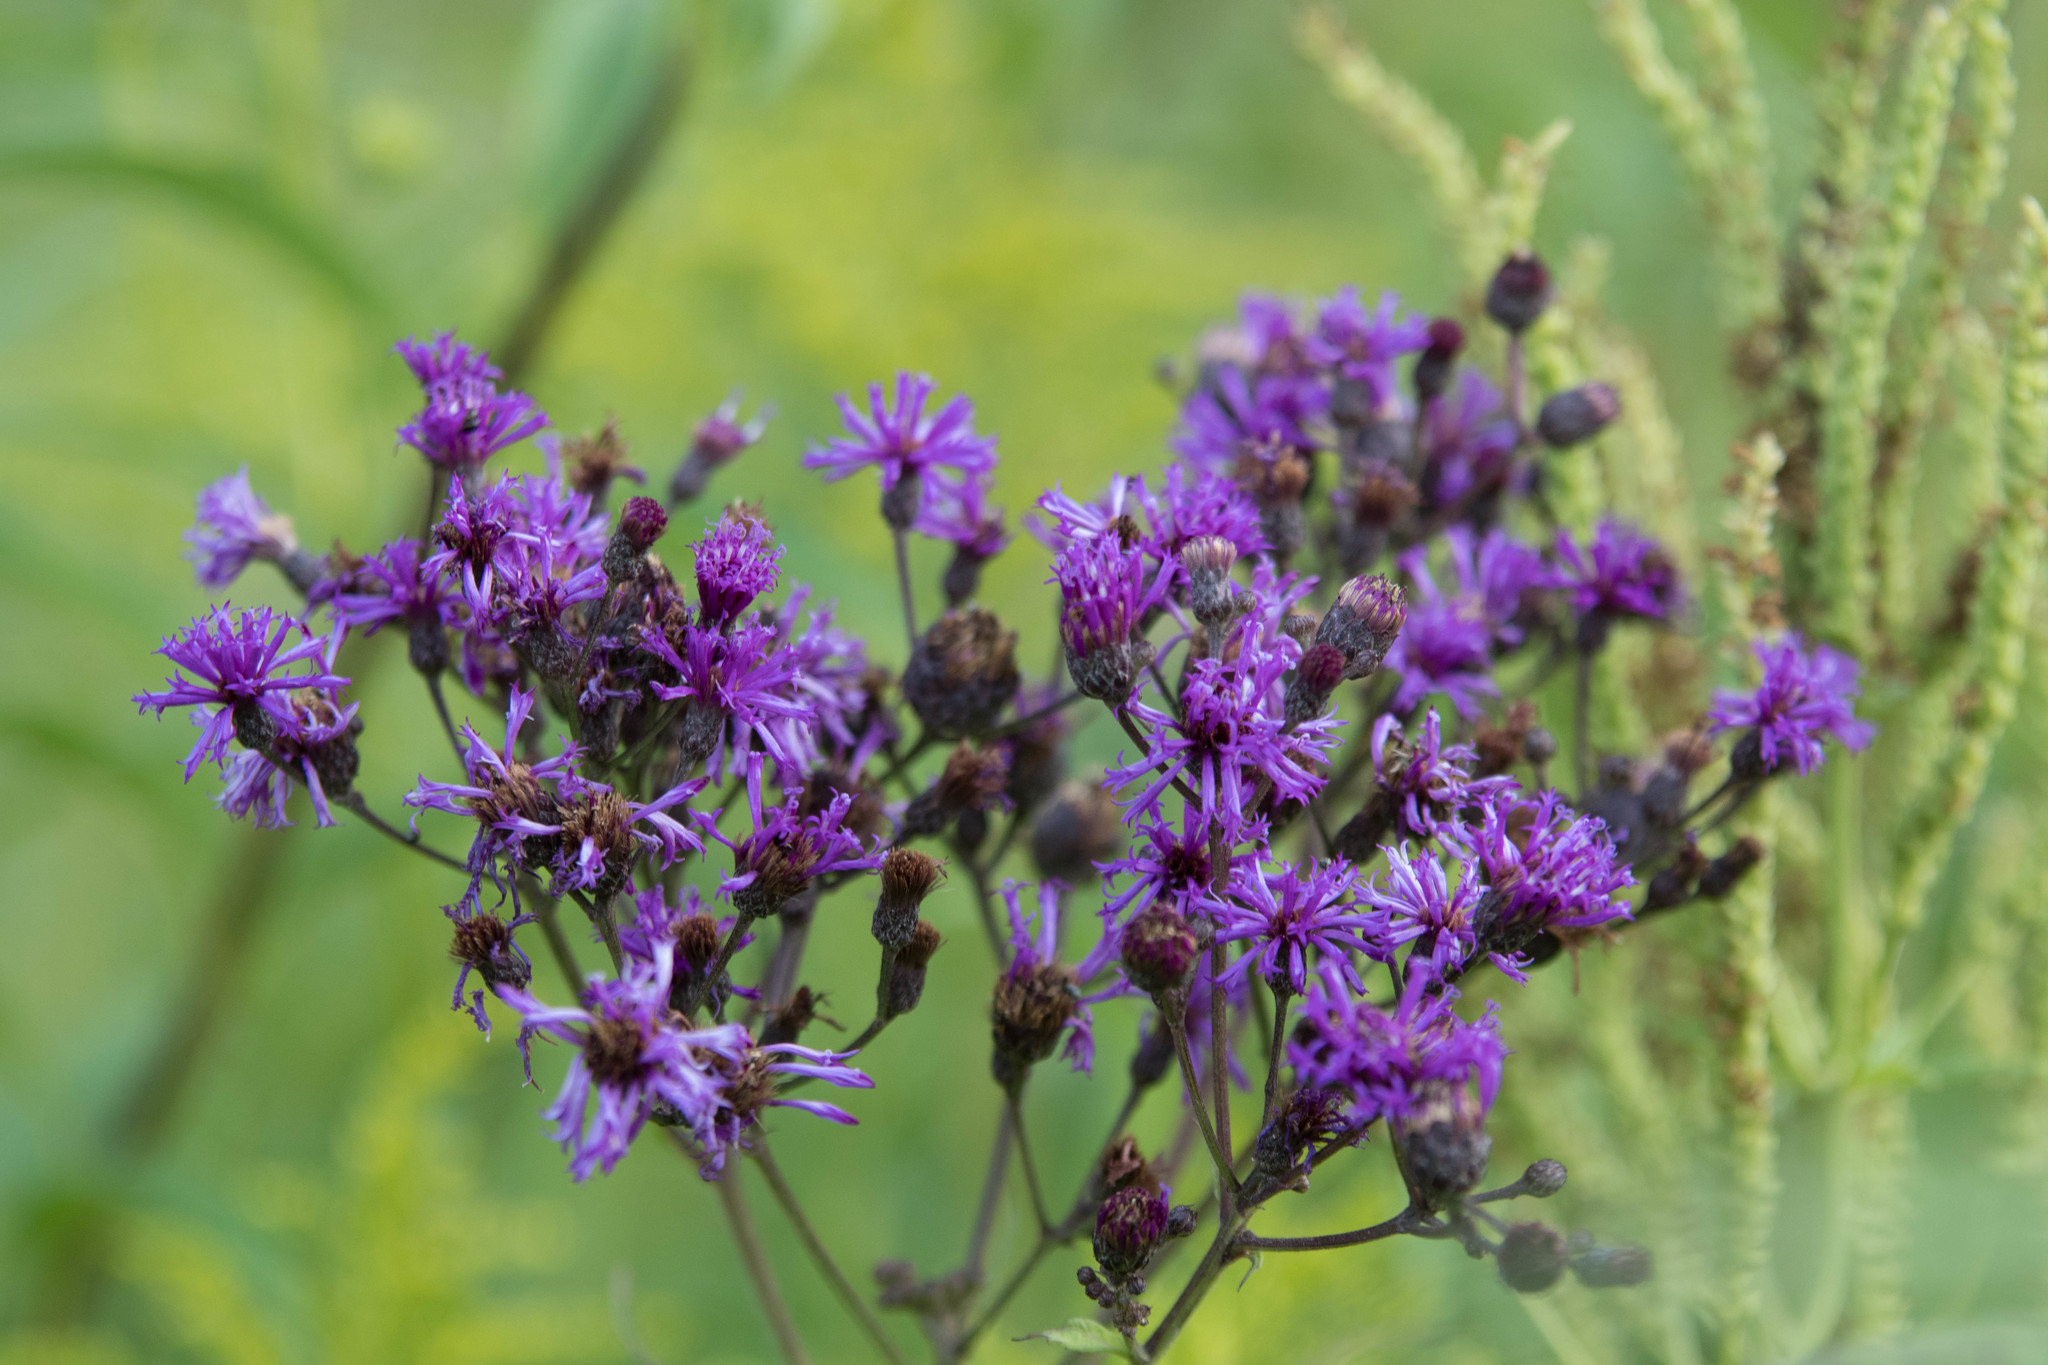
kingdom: Plantae
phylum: Tracheophyta
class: Magnoliopsida
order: Asterales
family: Asteraceae
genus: Vernonia
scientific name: Vernonia gigantea
